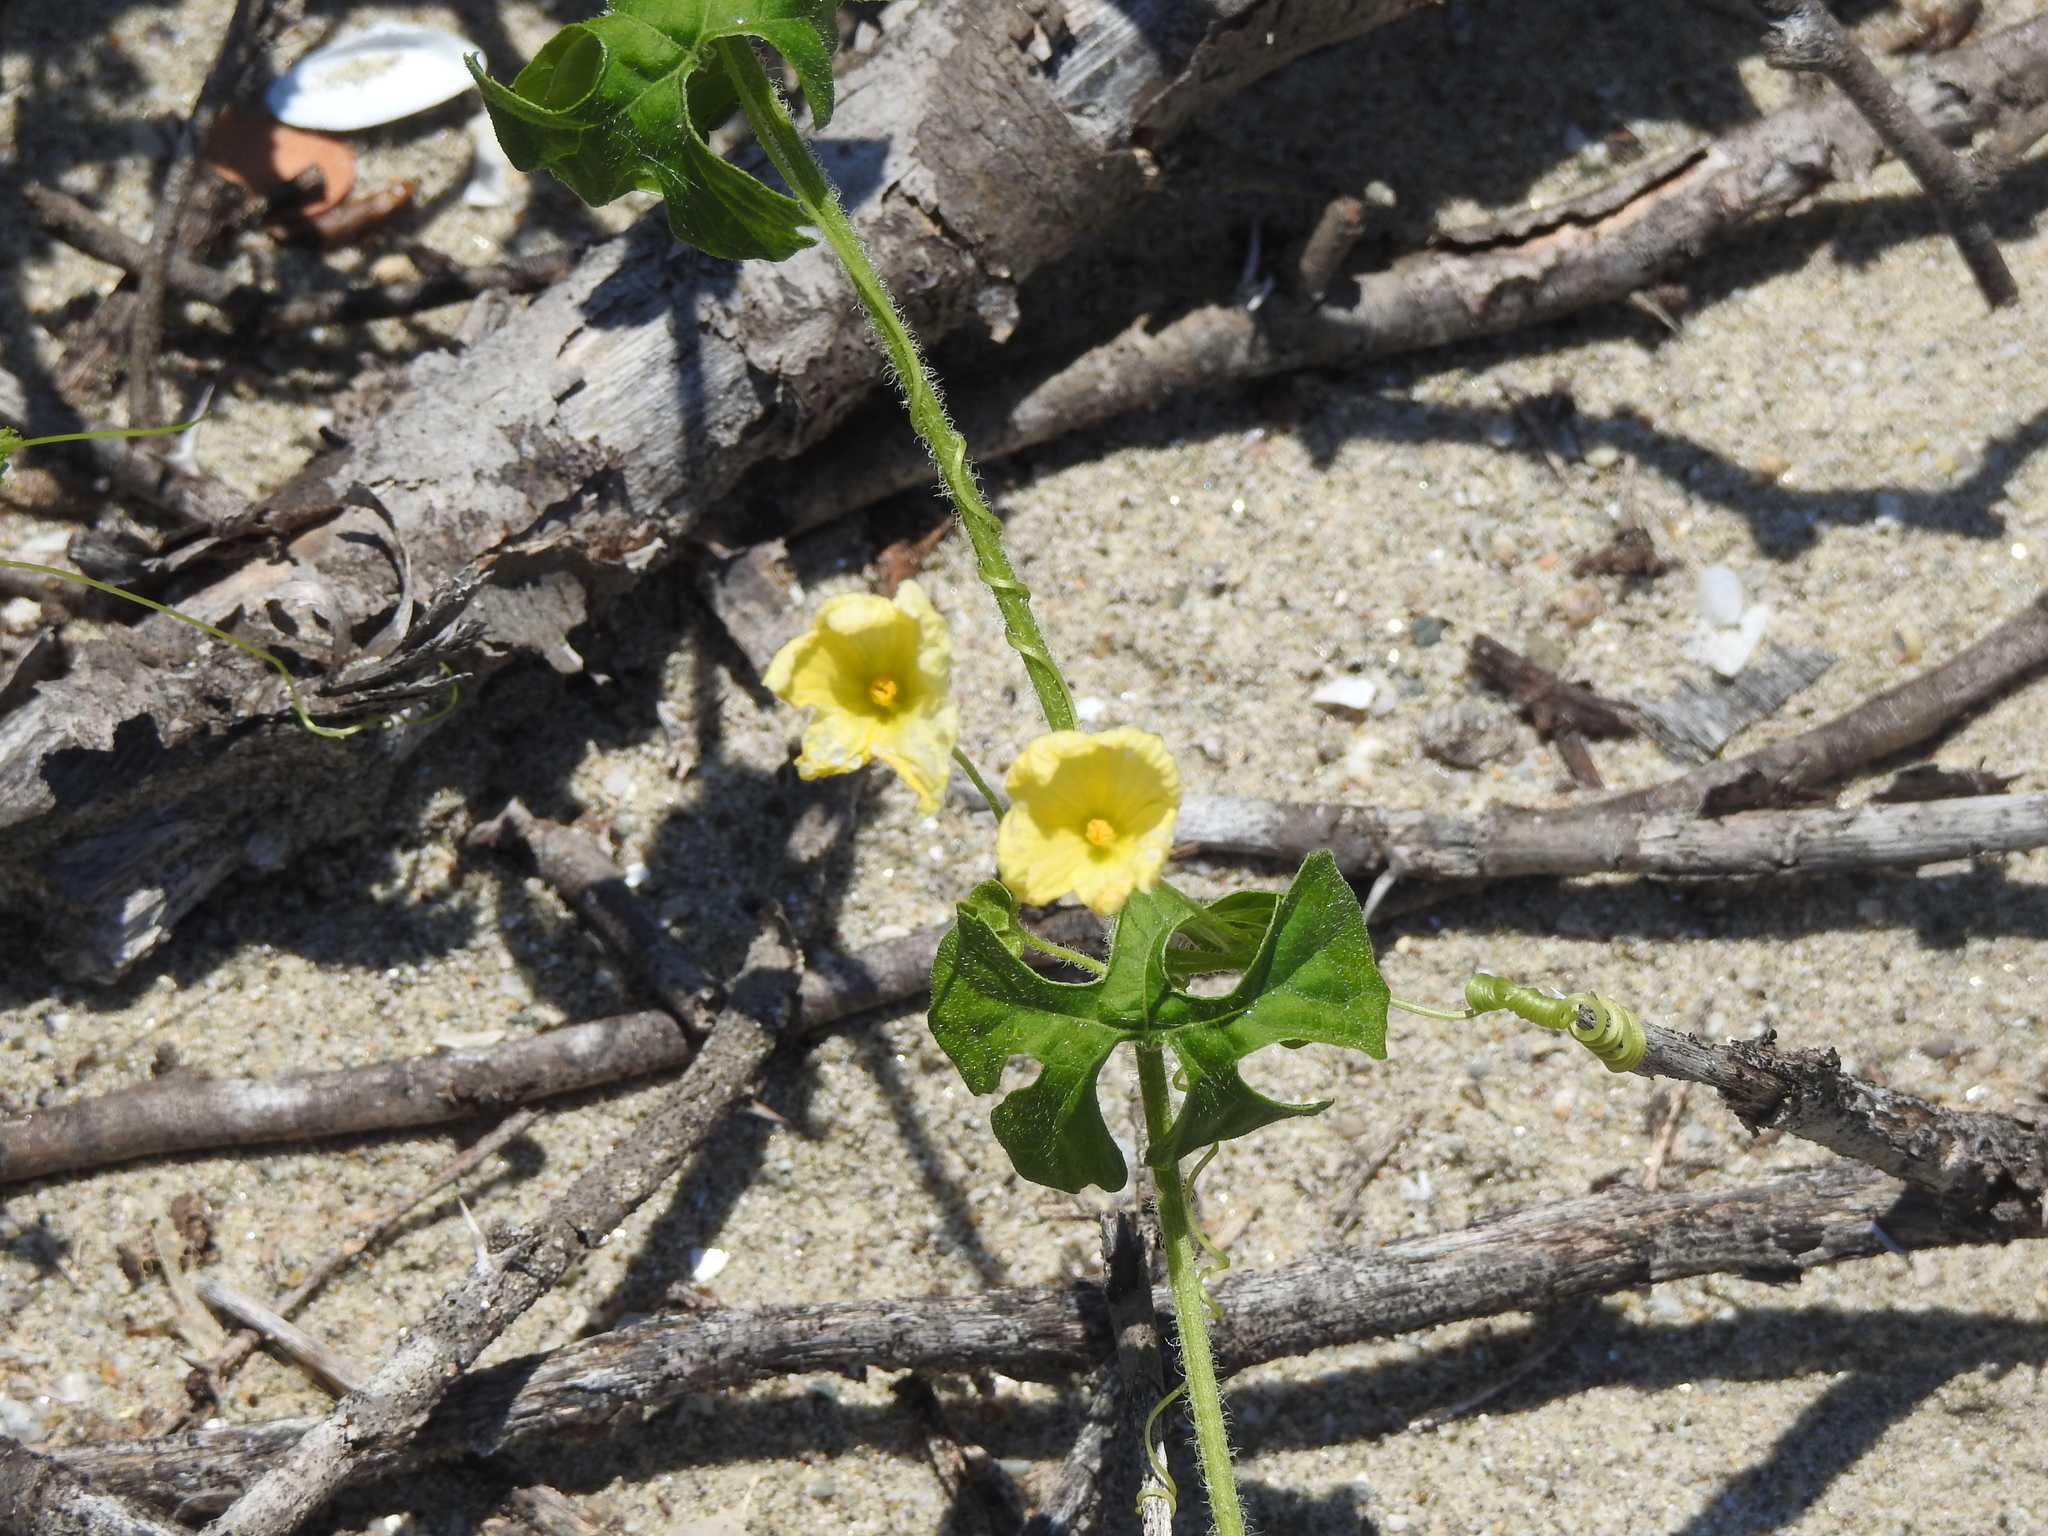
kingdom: Plantae
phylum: Tracheophyta
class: Magnoliopsida
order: Cucurbitales
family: Cucurbitaceae
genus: Momordica
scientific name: Momordica charantia
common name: Balsampear
